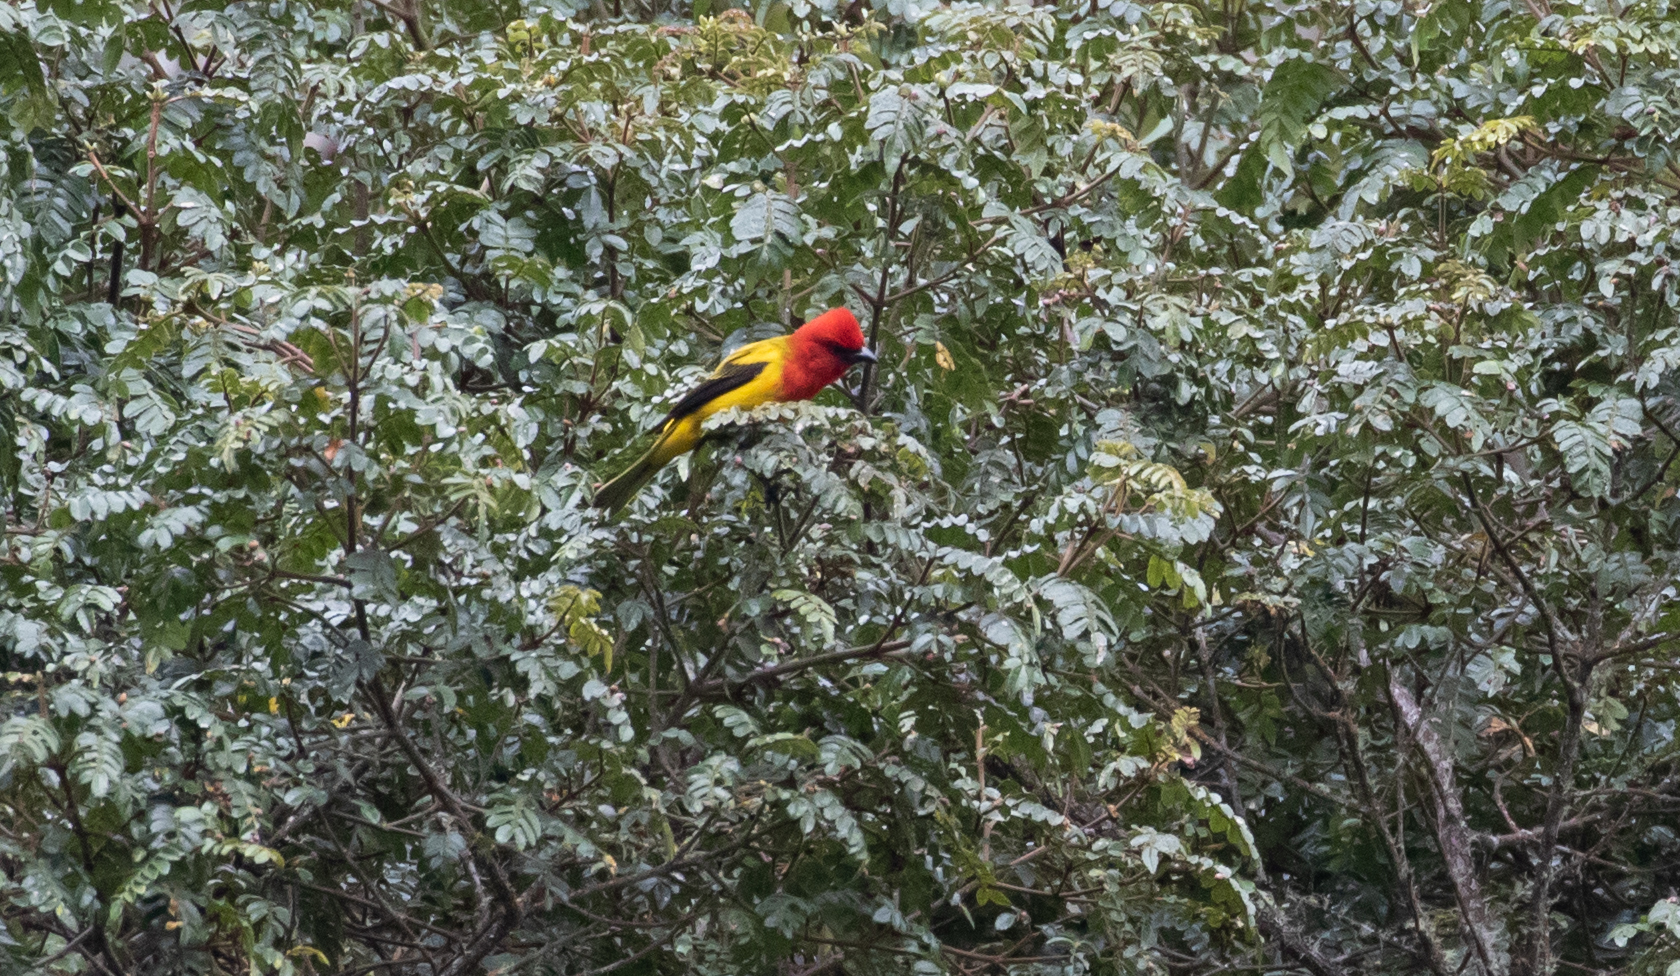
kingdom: Animalia
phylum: Chordata
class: Aves
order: Passeriformes
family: Cardinalidae
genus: Piranga
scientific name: Piranga rubriceps
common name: Red-hooded tanager
